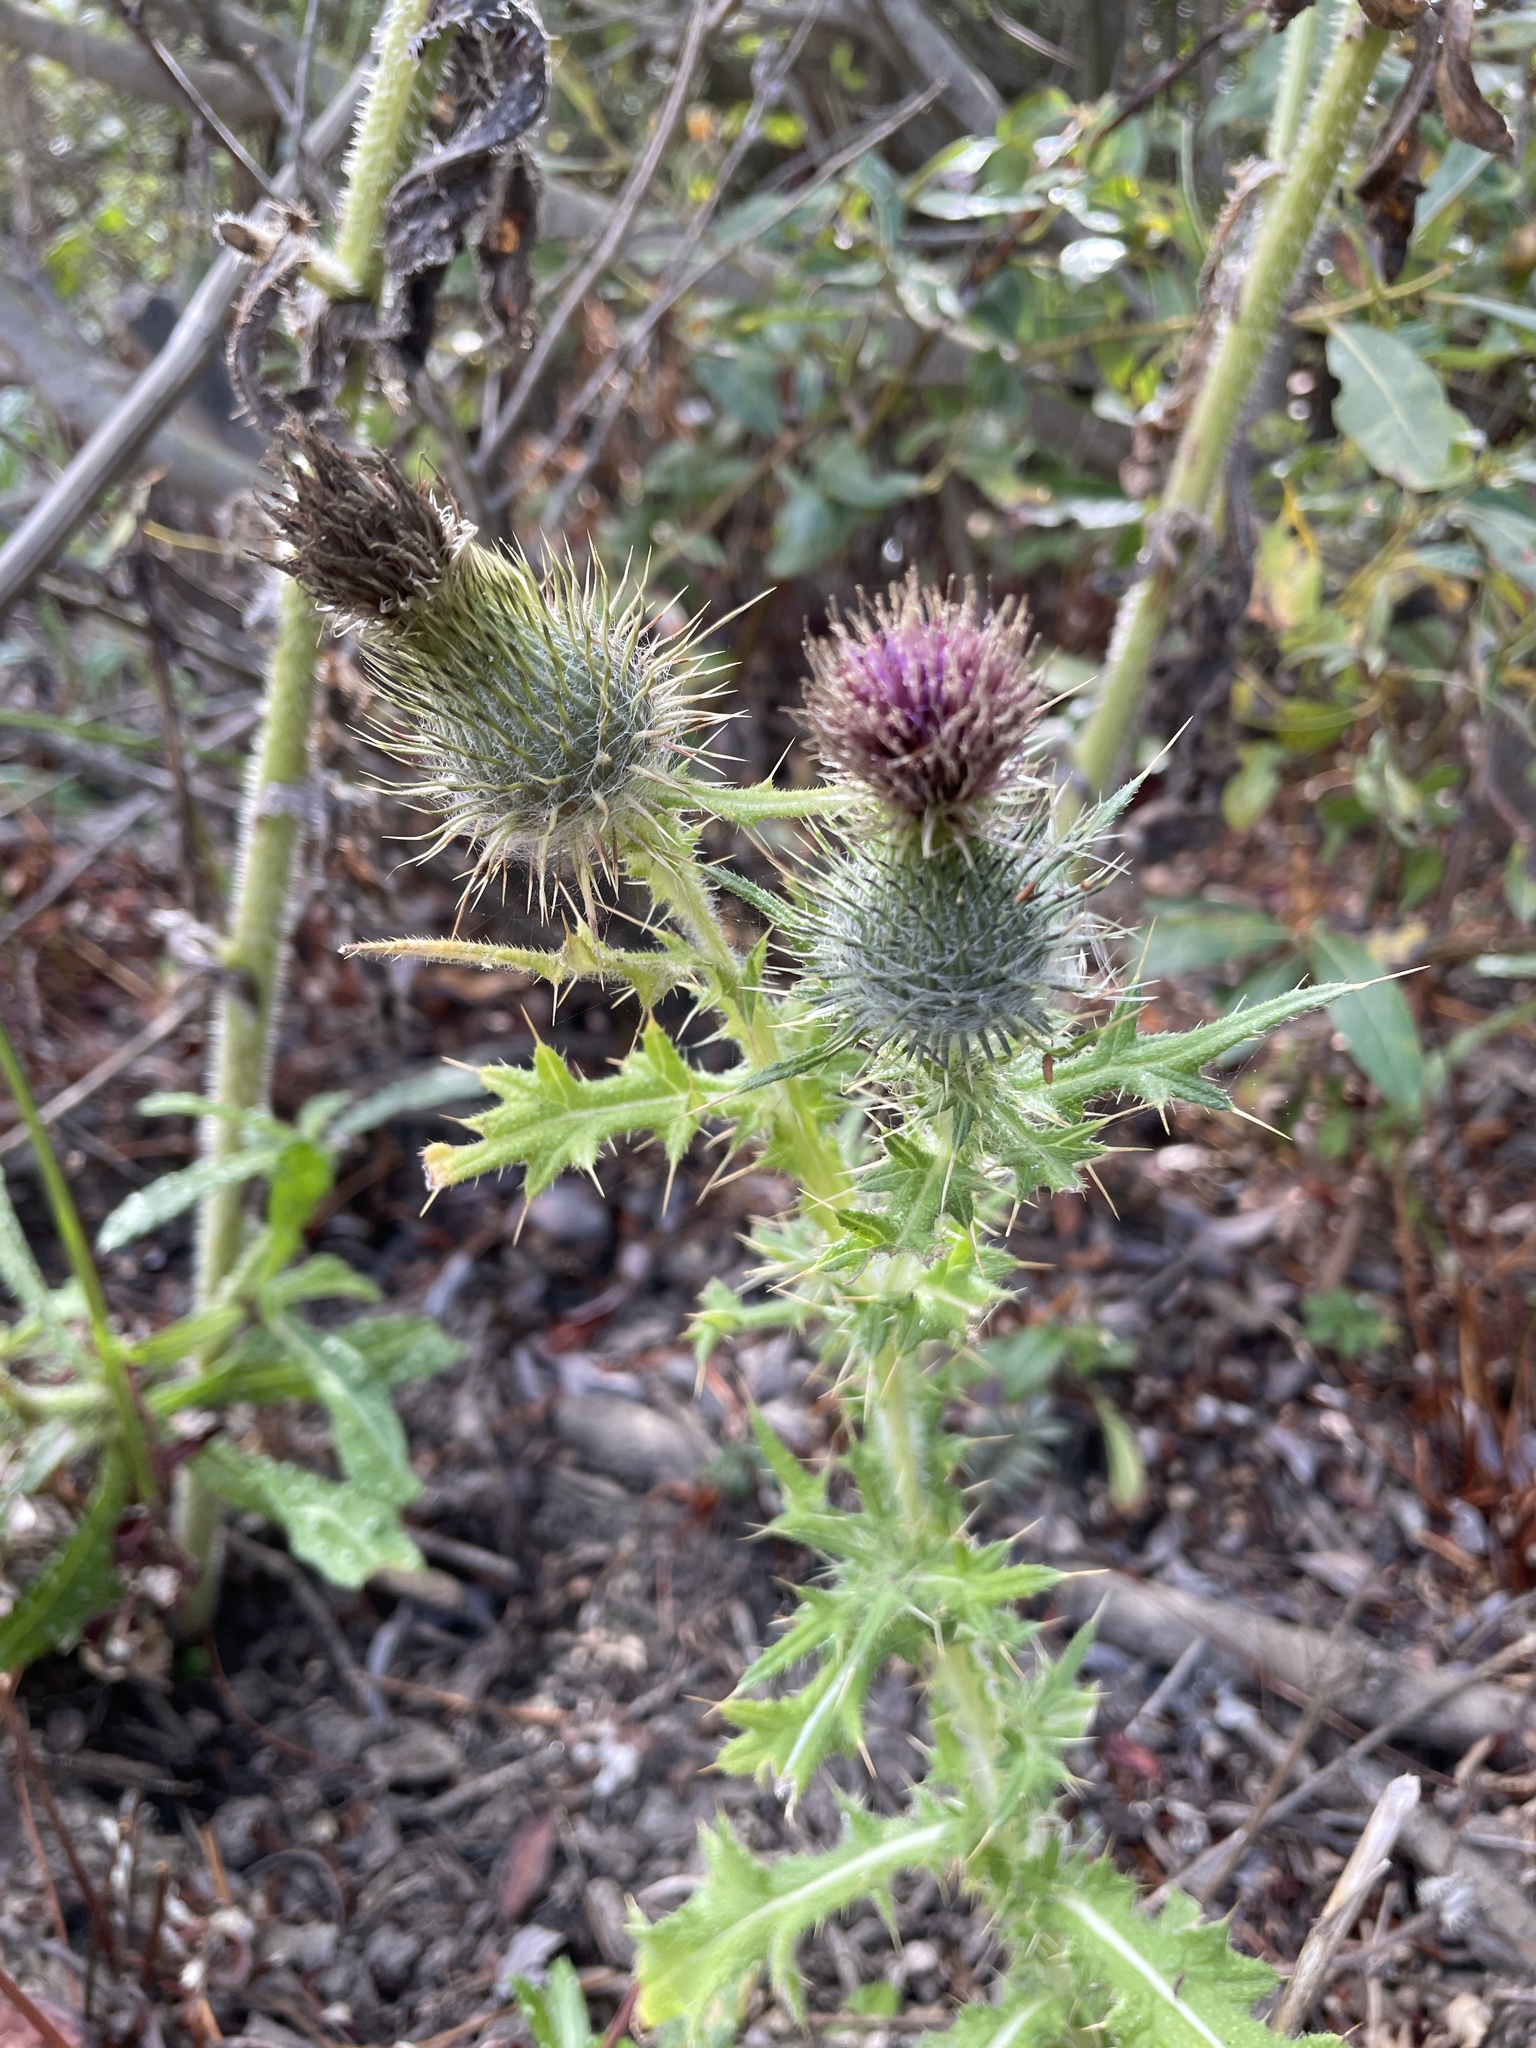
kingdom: Plantae
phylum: Tracheophyta
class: Magnoliopsida
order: Asterales
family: Asteraceae
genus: Cirsium
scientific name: Cirsium vulgare
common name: Bull thistle
